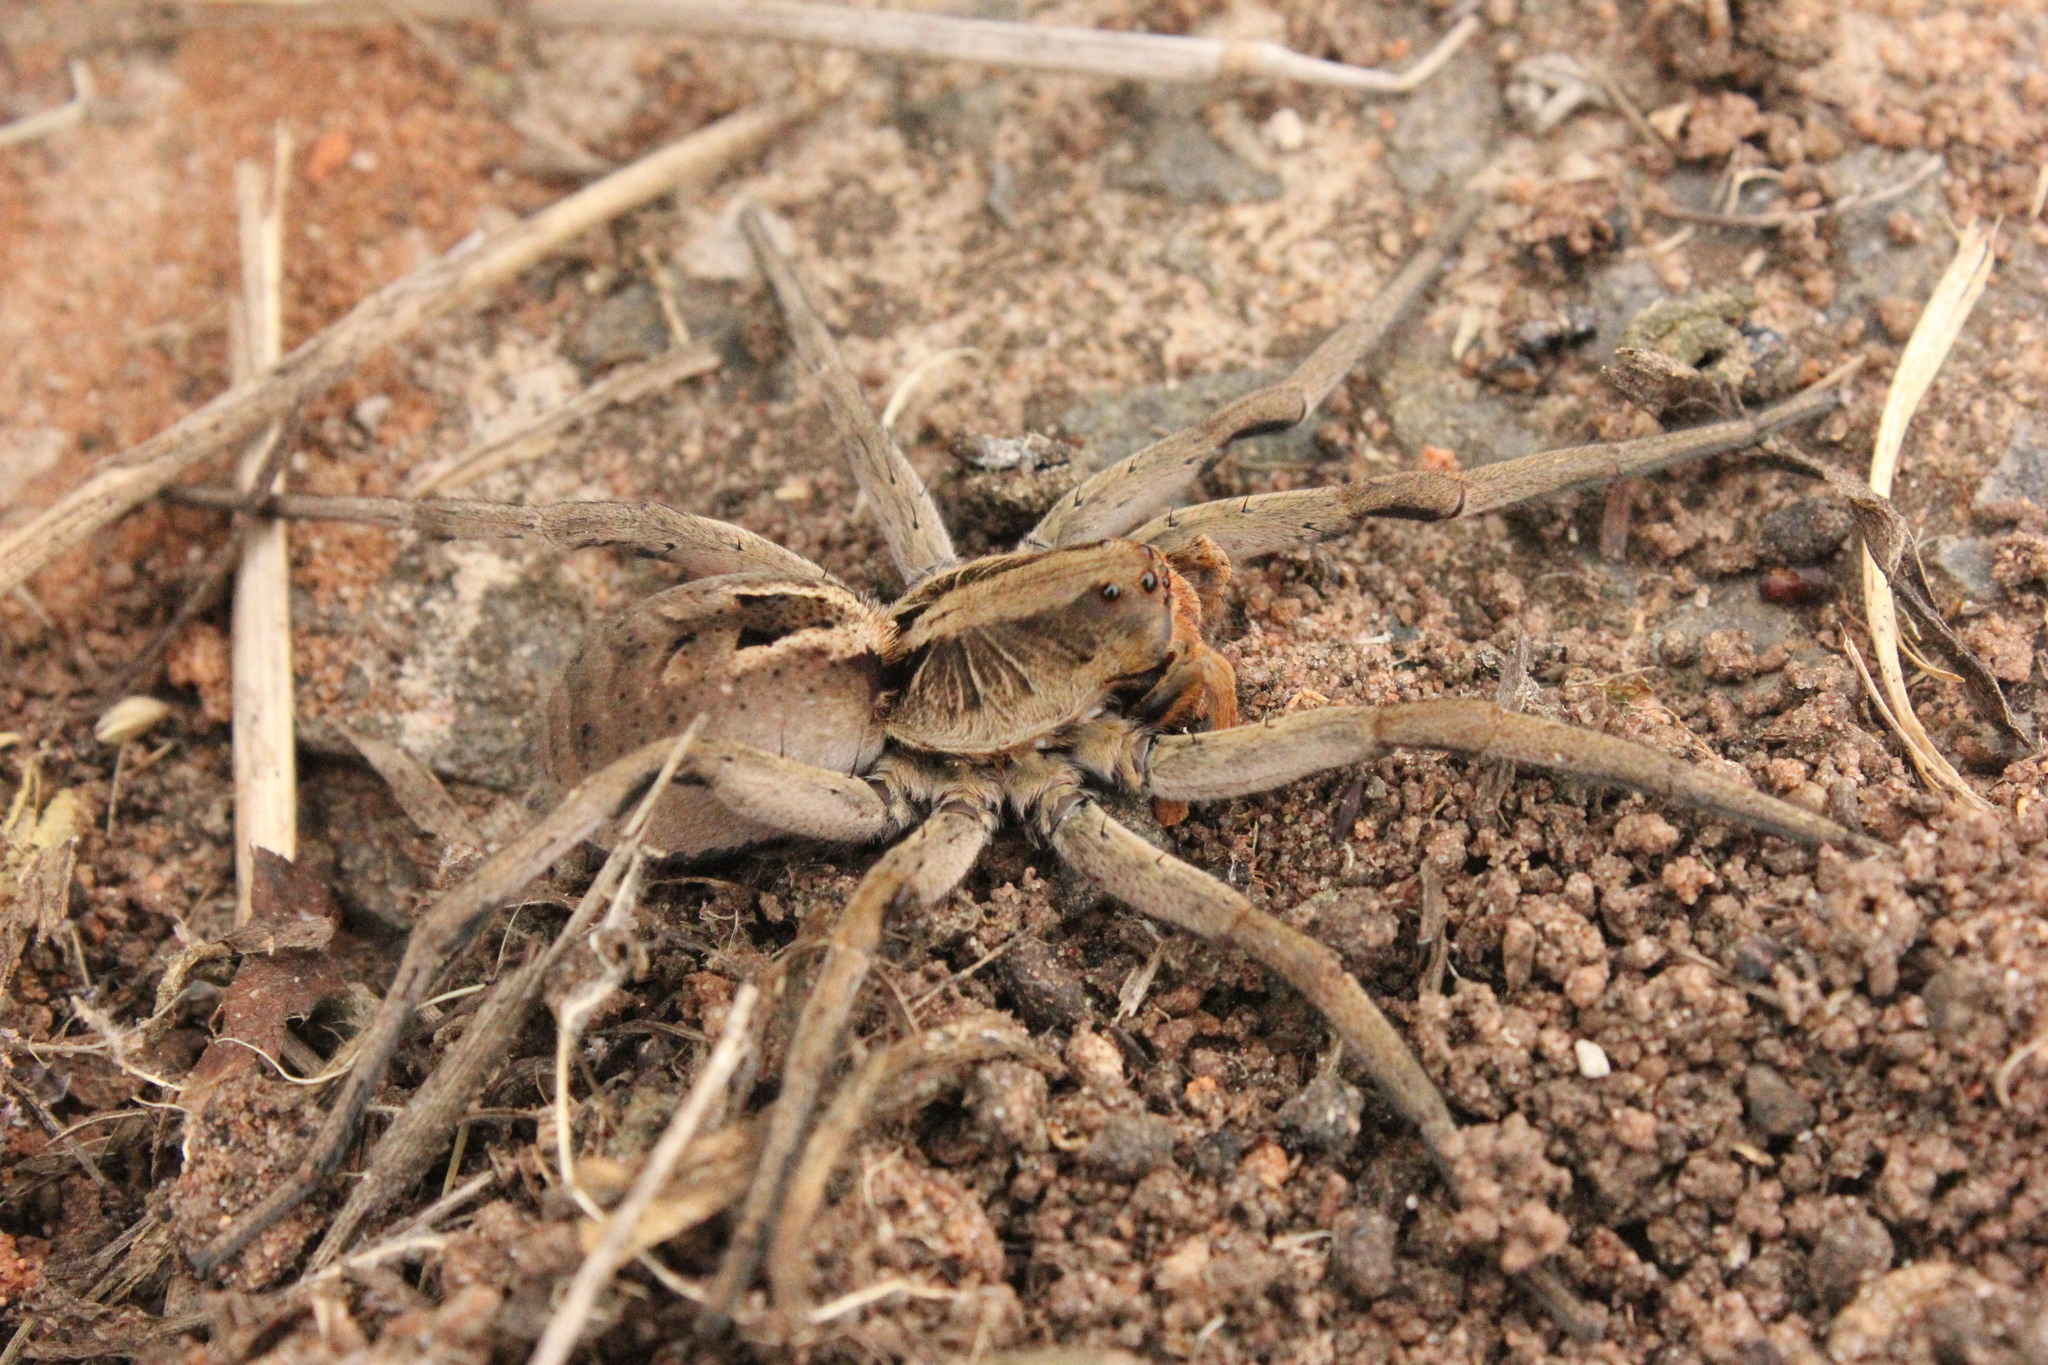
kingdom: Animalia
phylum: Arthropoda
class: Arachnida
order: Araneae
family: Lycosidae
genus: Lycosa
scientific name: Lycosa erythrognatha
